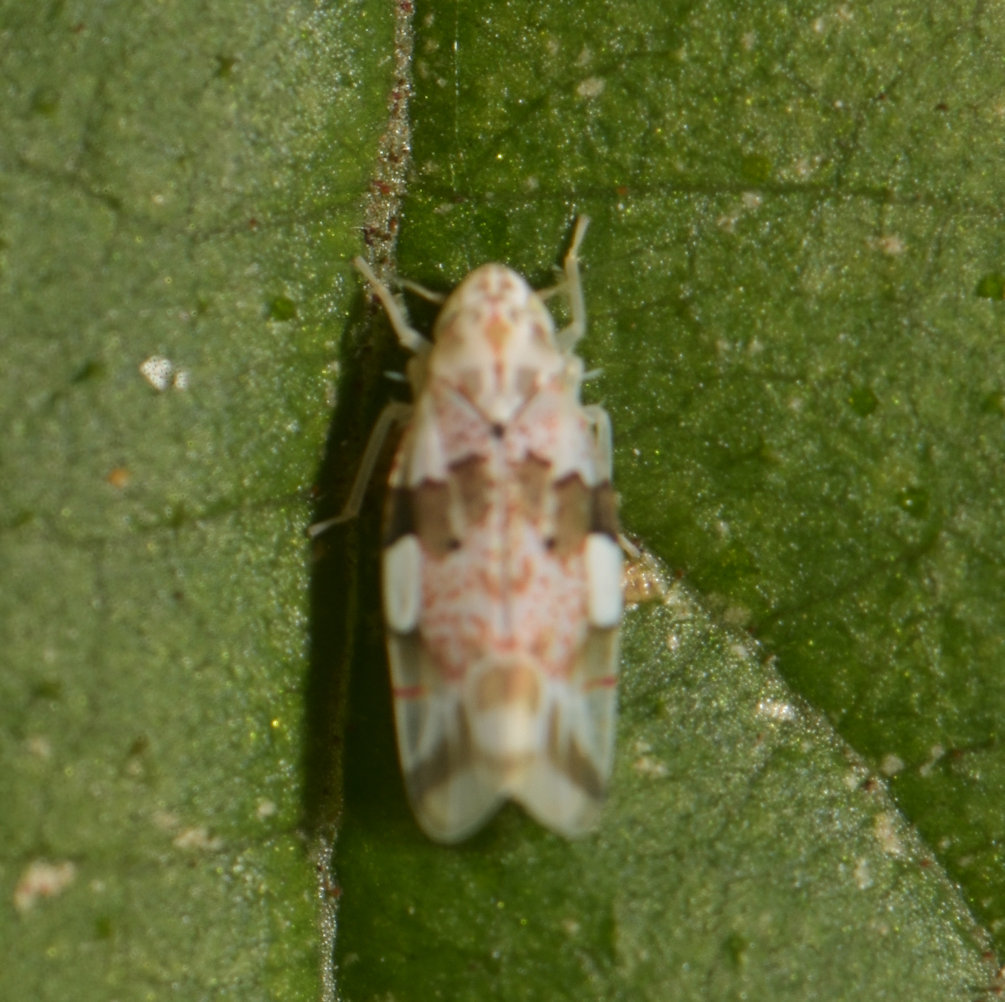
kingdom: Animalia
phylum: Arthropoda
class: Insecta
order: Hemiptera
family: Cicadellidae
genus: Hymetta
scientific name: Hymetta balteata
